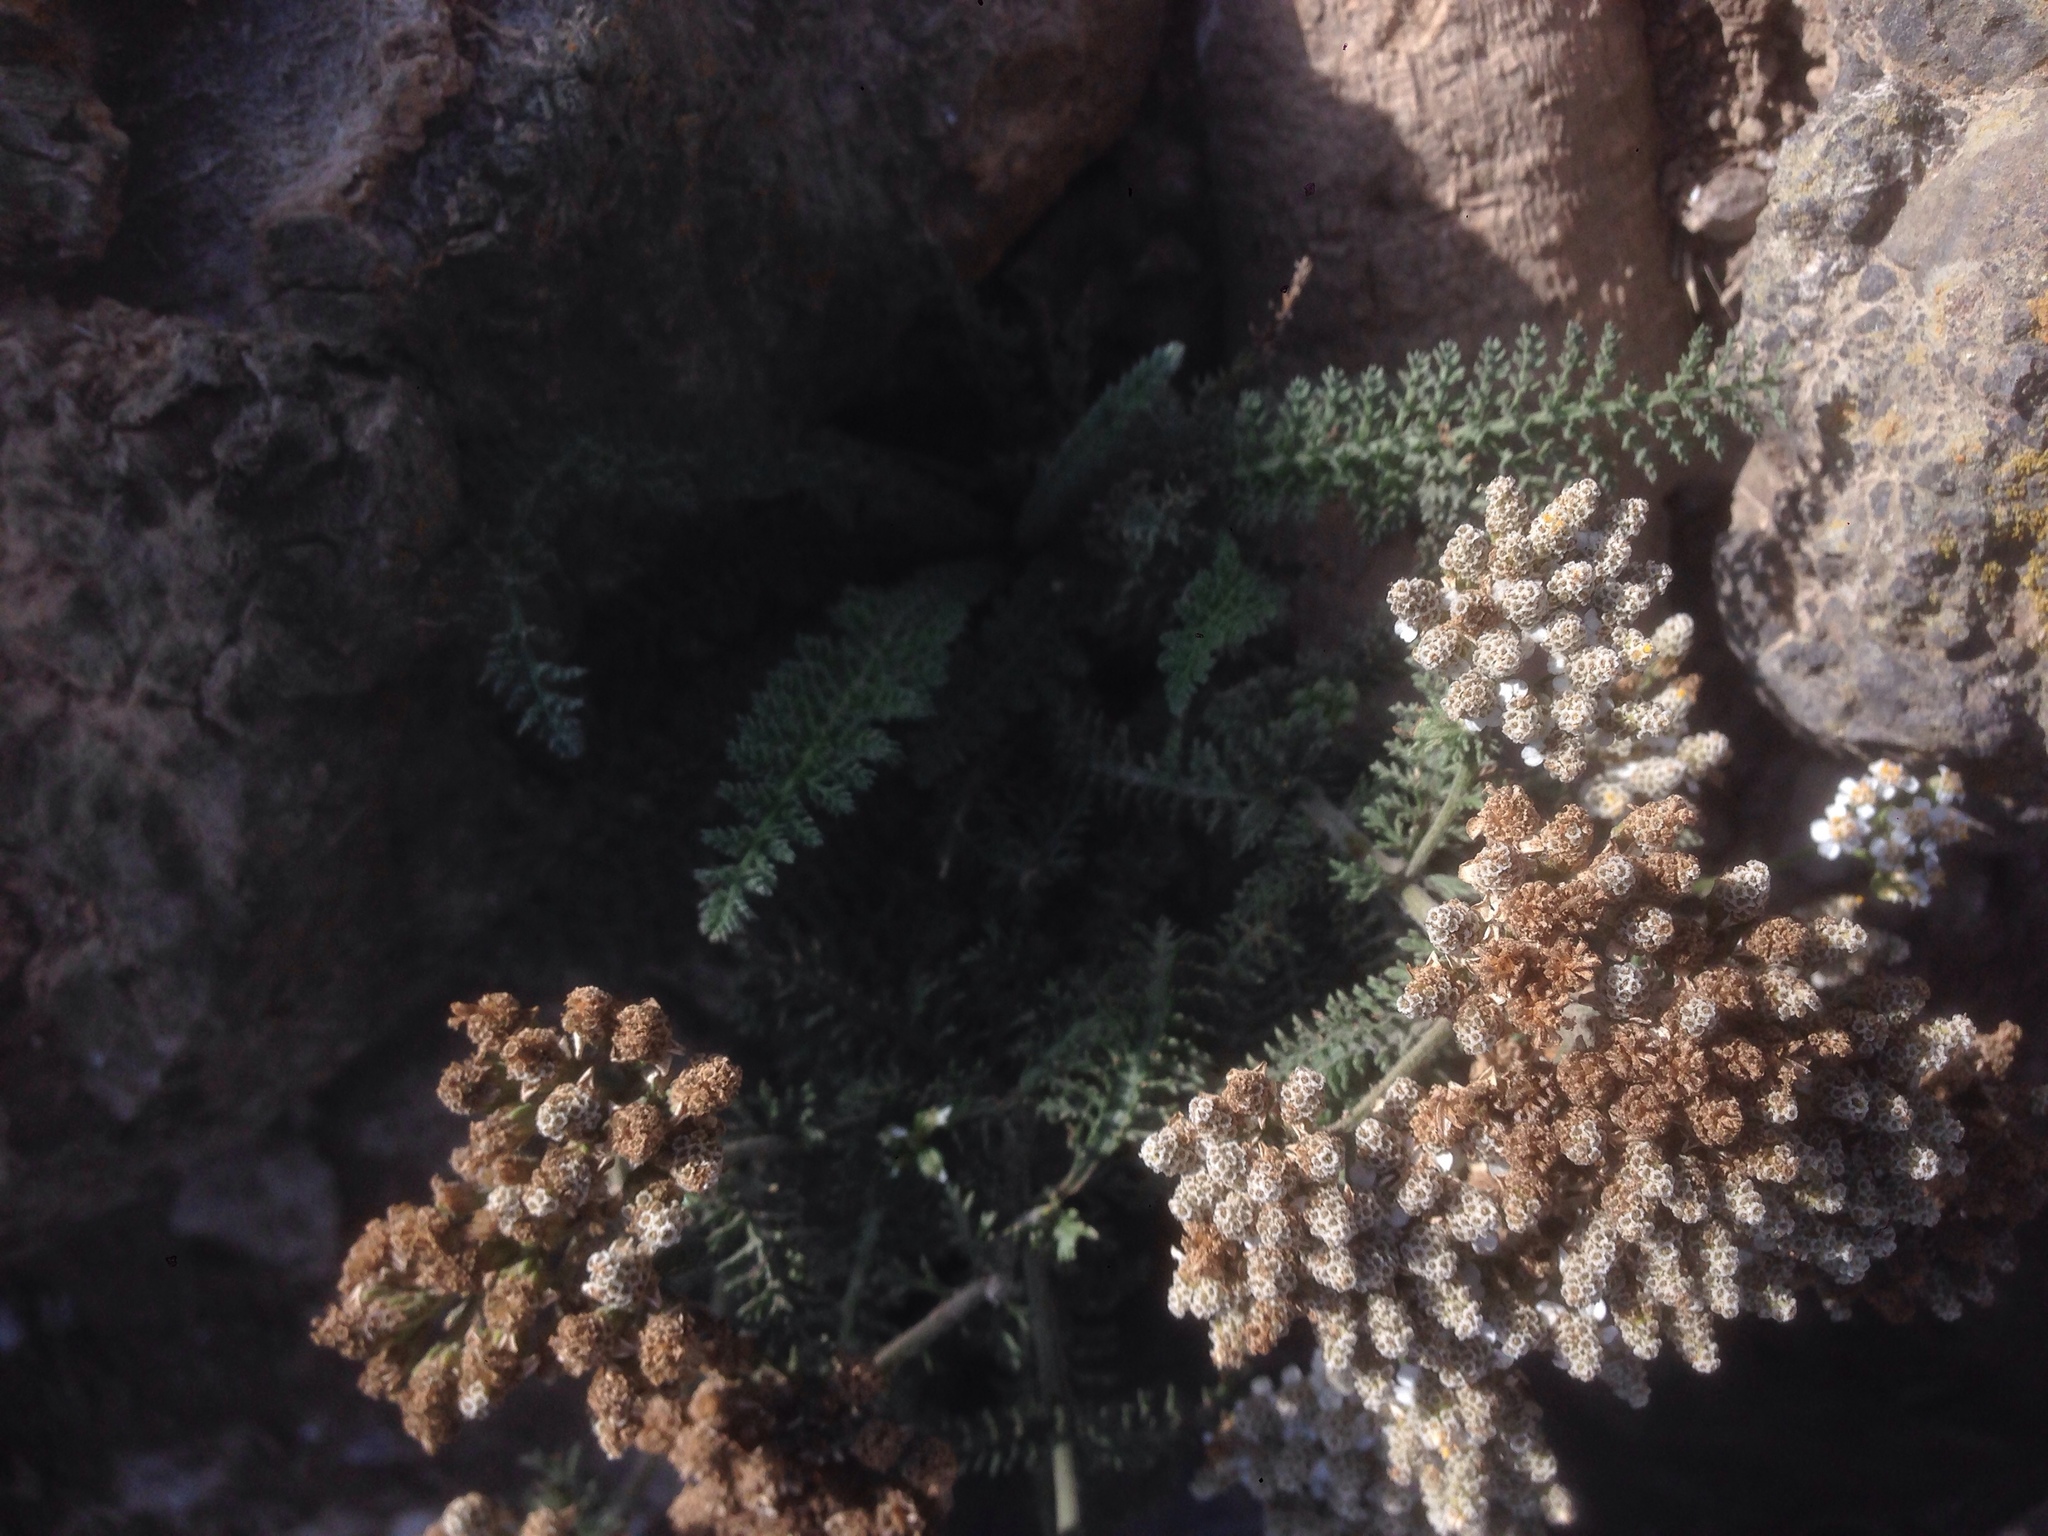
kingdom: Plantae
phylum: Tracheophyta
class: Magnoliopsida
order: Asterales
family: Asteraceae
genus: Achillea
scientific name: Achillea millefolium
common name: Yarrow
